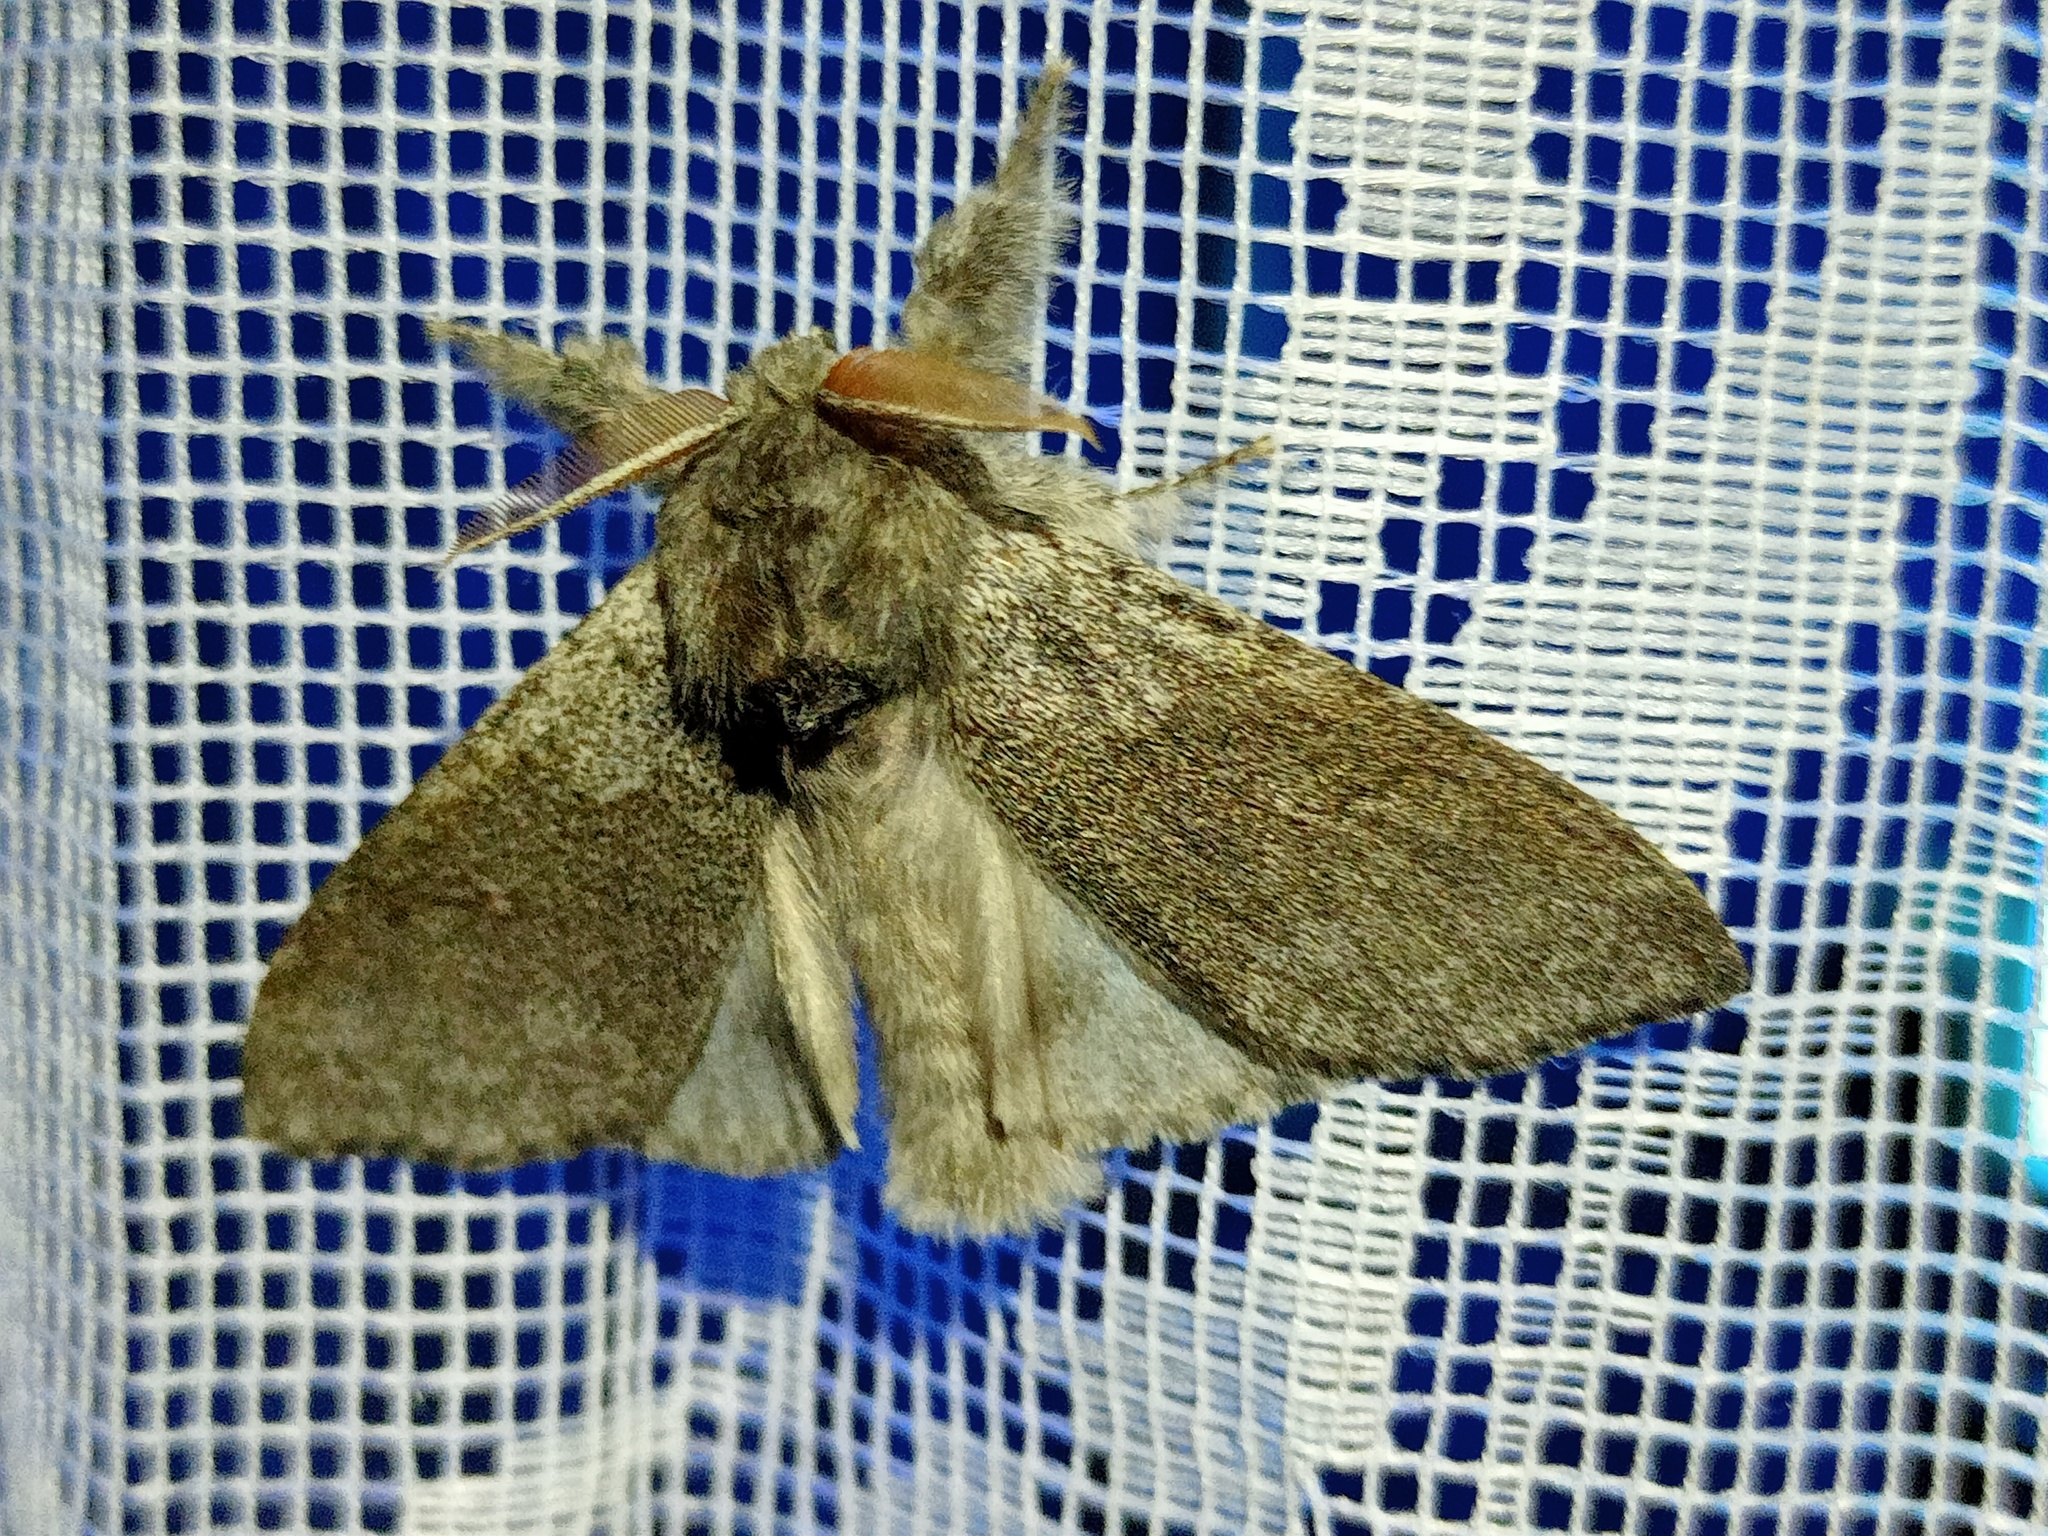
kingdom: Animalia
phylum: Arthropoda
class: Insecta
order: Lepidoptera
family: Erebidae
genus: Calliteara
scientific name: Calliteara pudibunda
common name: Pale tussock
